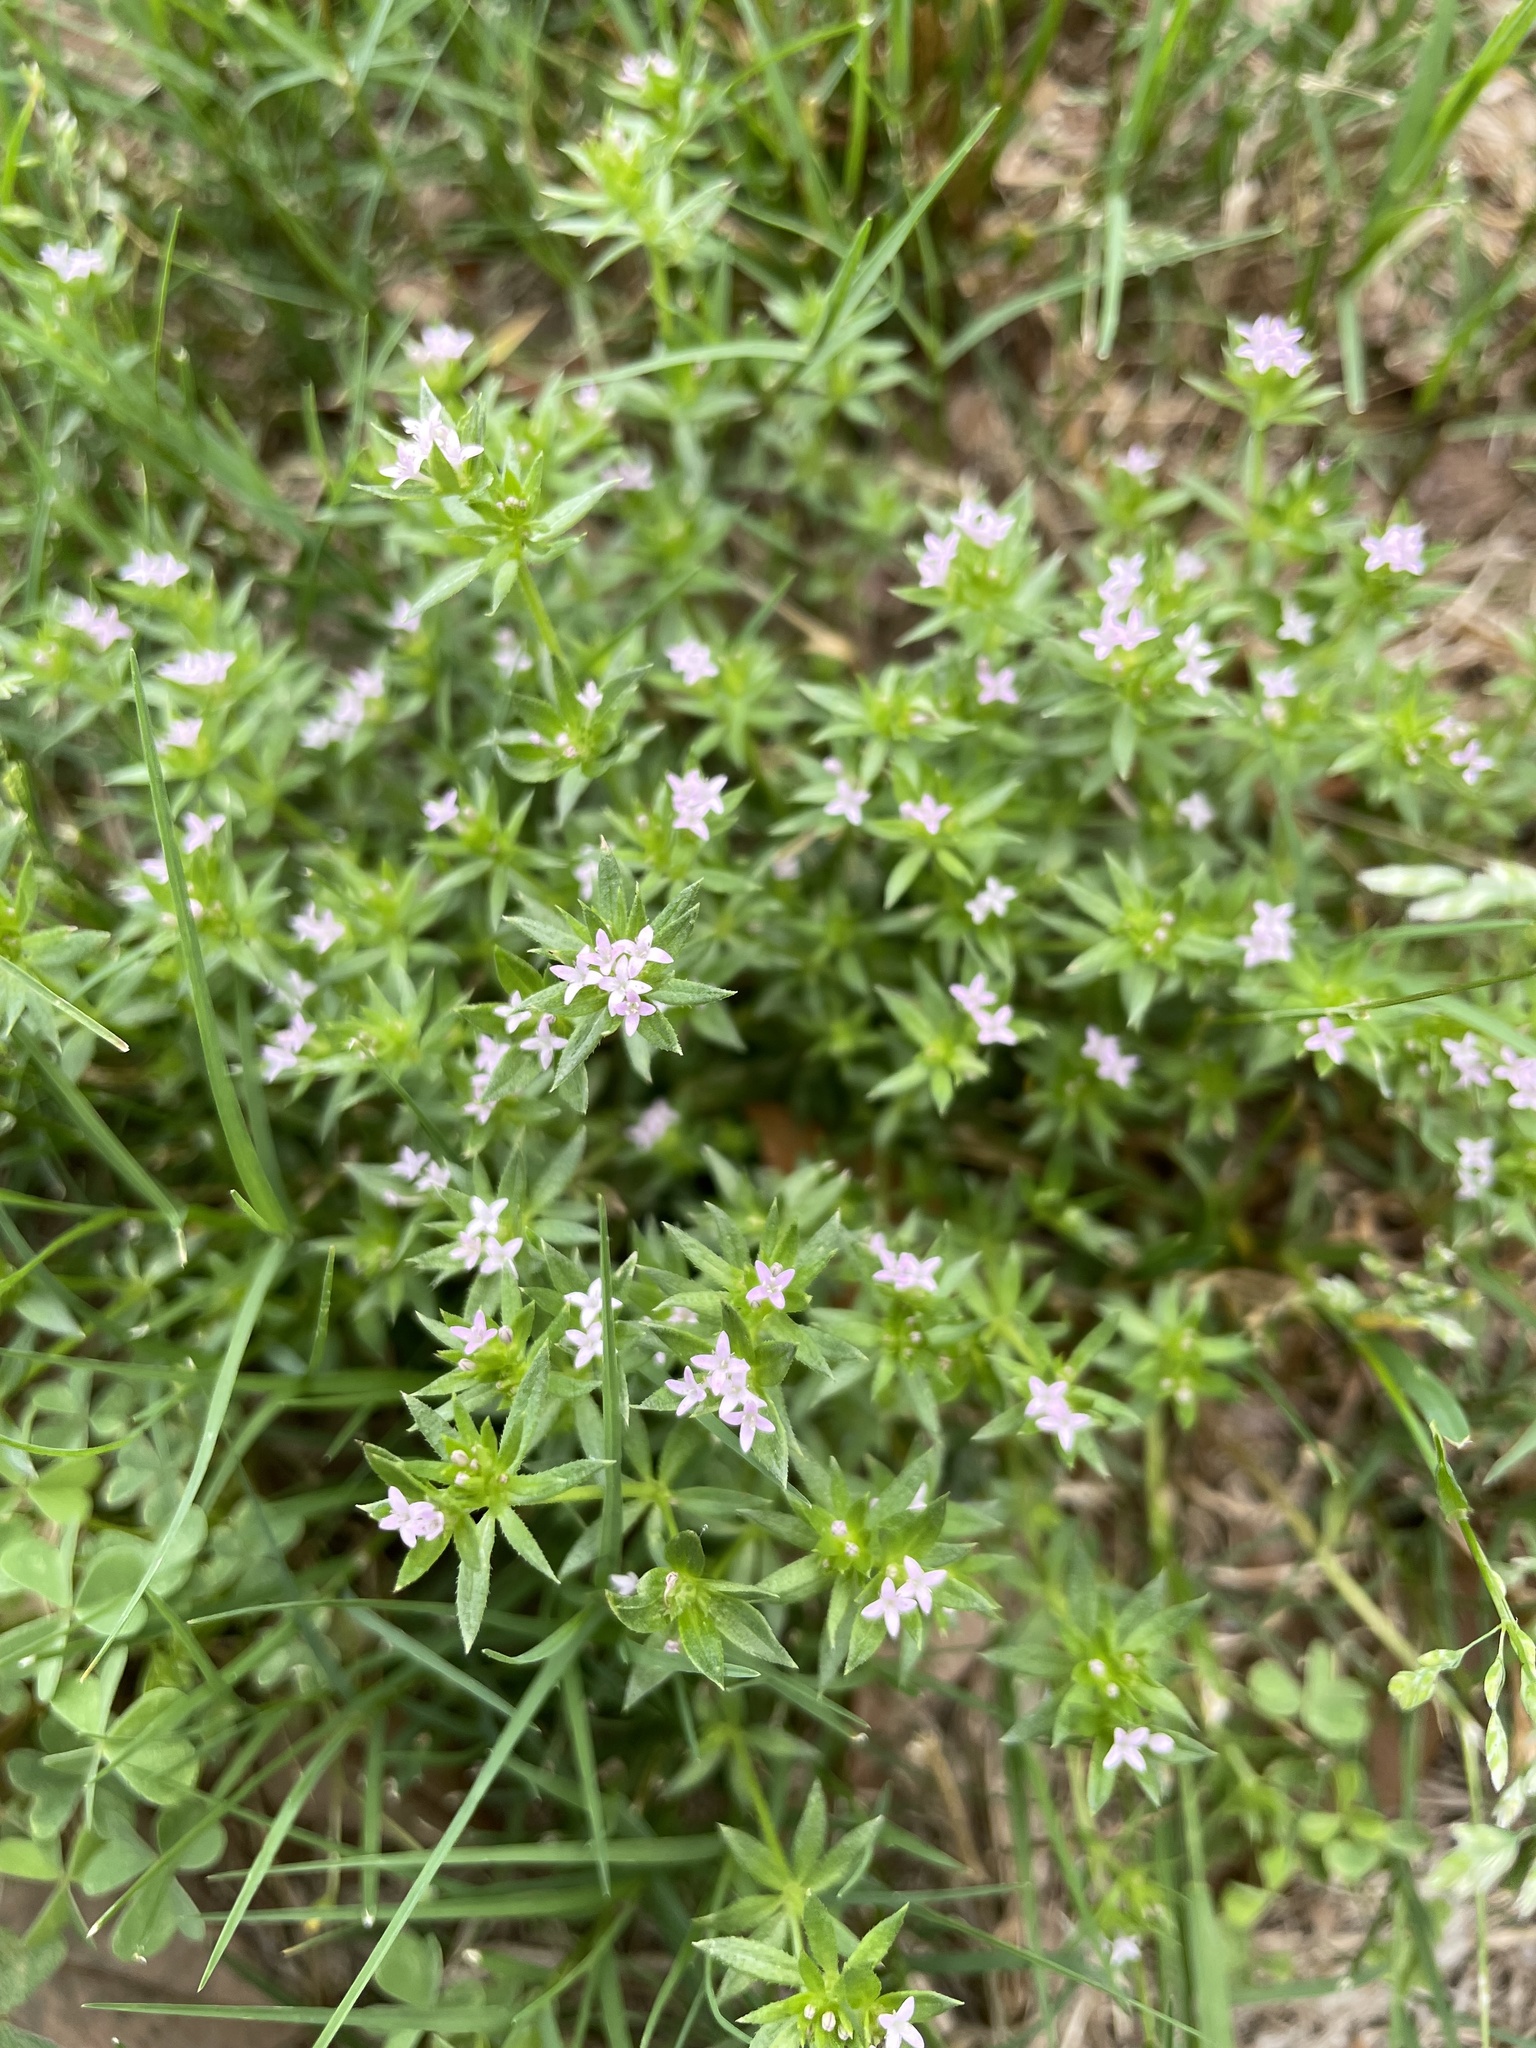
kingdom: Plantae
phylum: Tracheophyta
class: Magnoliopsida
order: Gentianales
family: Rubiaceae
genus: Sherardia
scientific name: Sherardia arvensis
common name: Field madder
